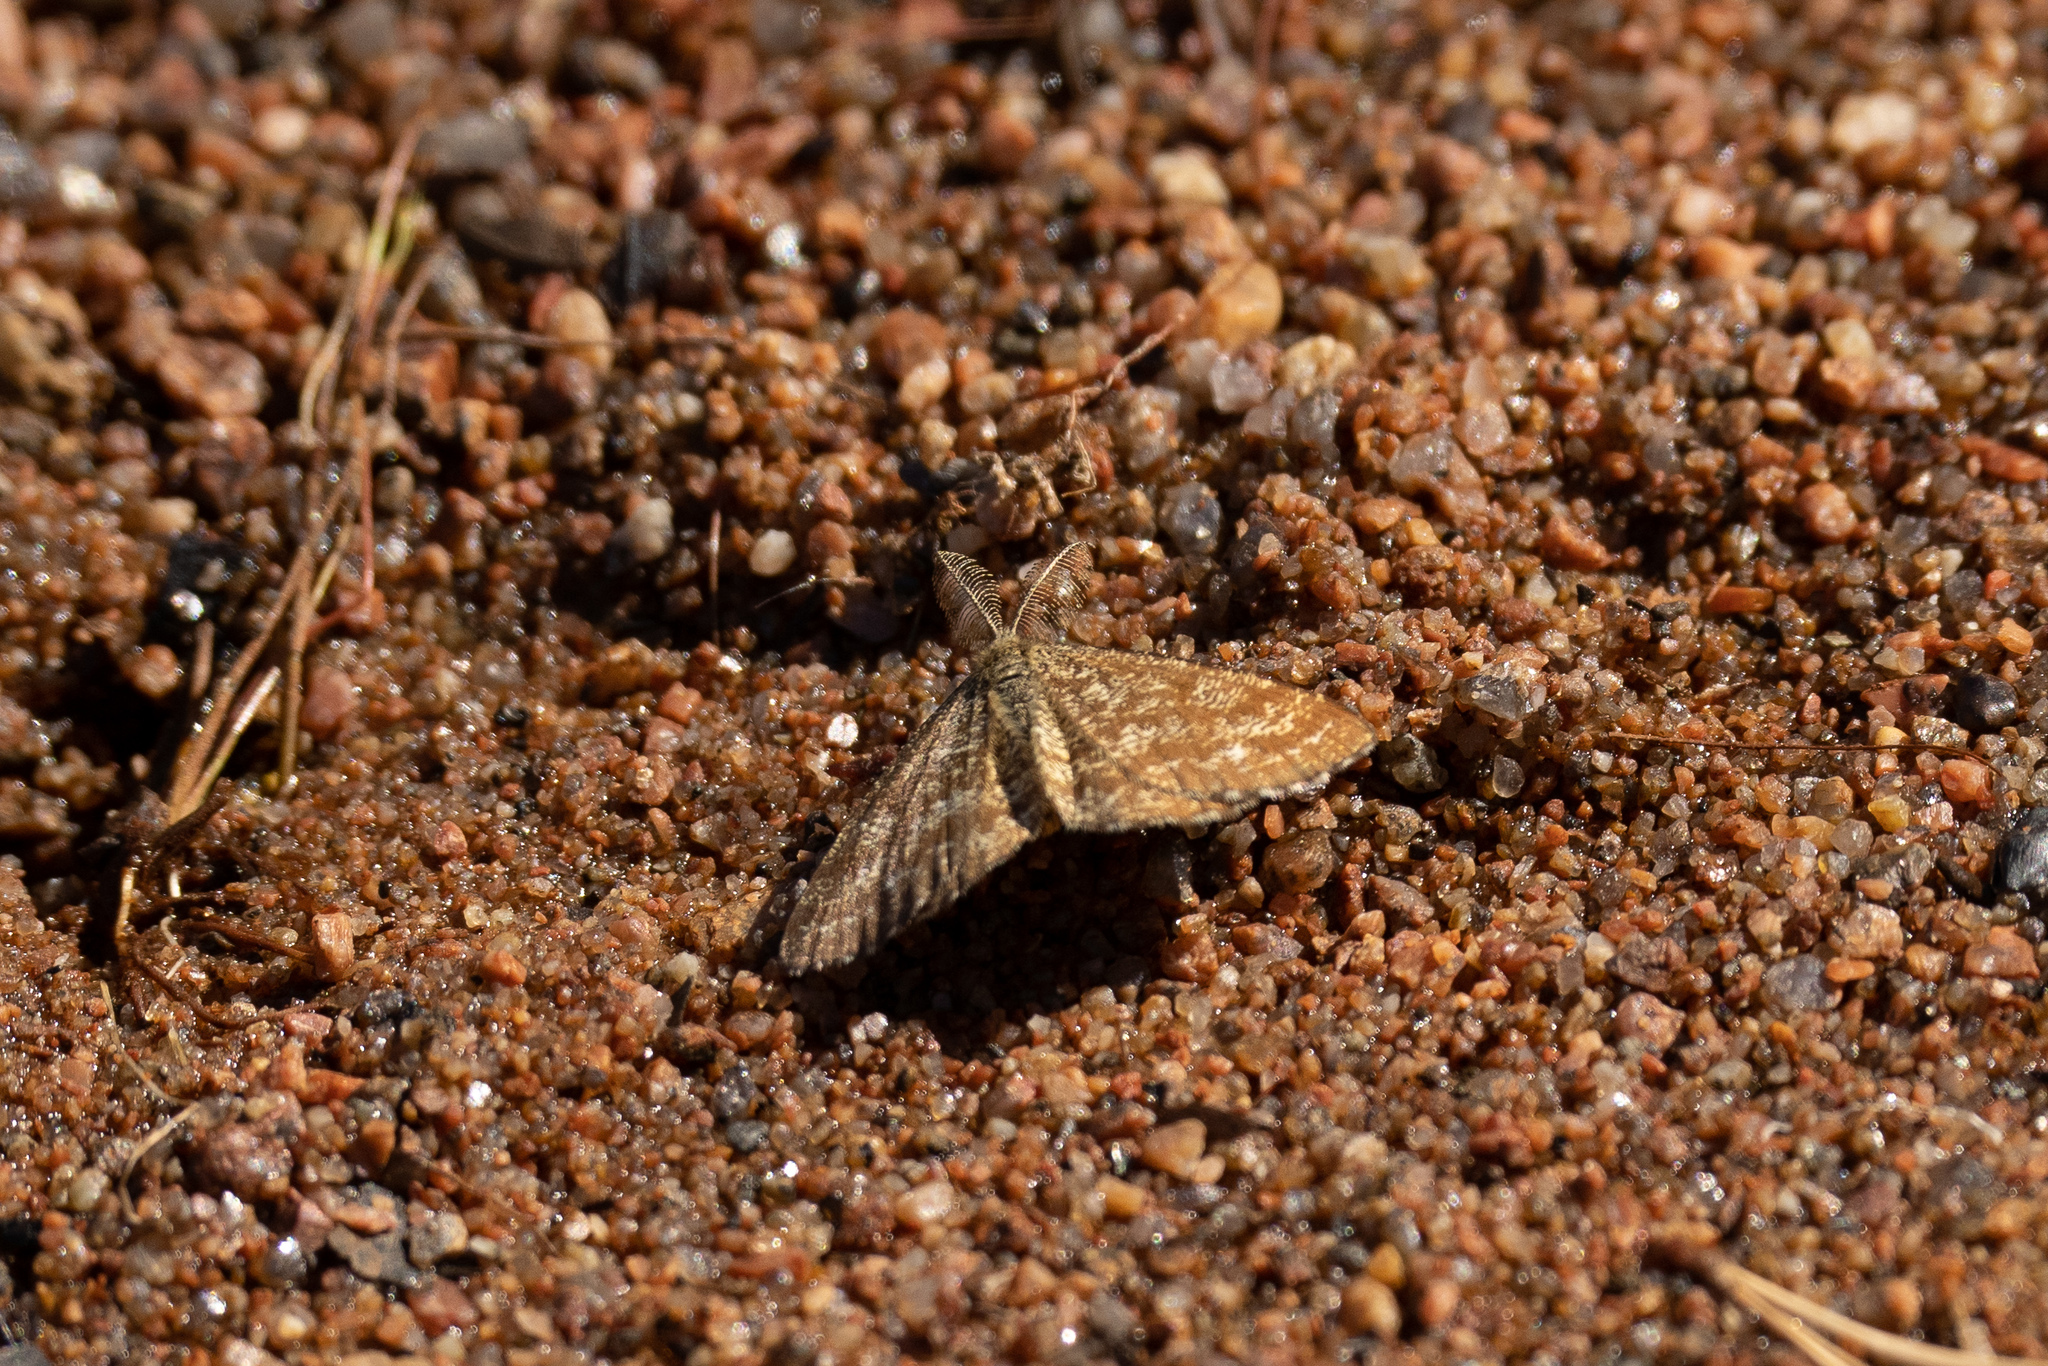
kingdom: Animalia
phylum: Arthropoda
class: Insecta
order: Lepidoptera
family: Geometridae
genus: Ematurga
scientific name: Ematurga atomaria
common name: Common heath
